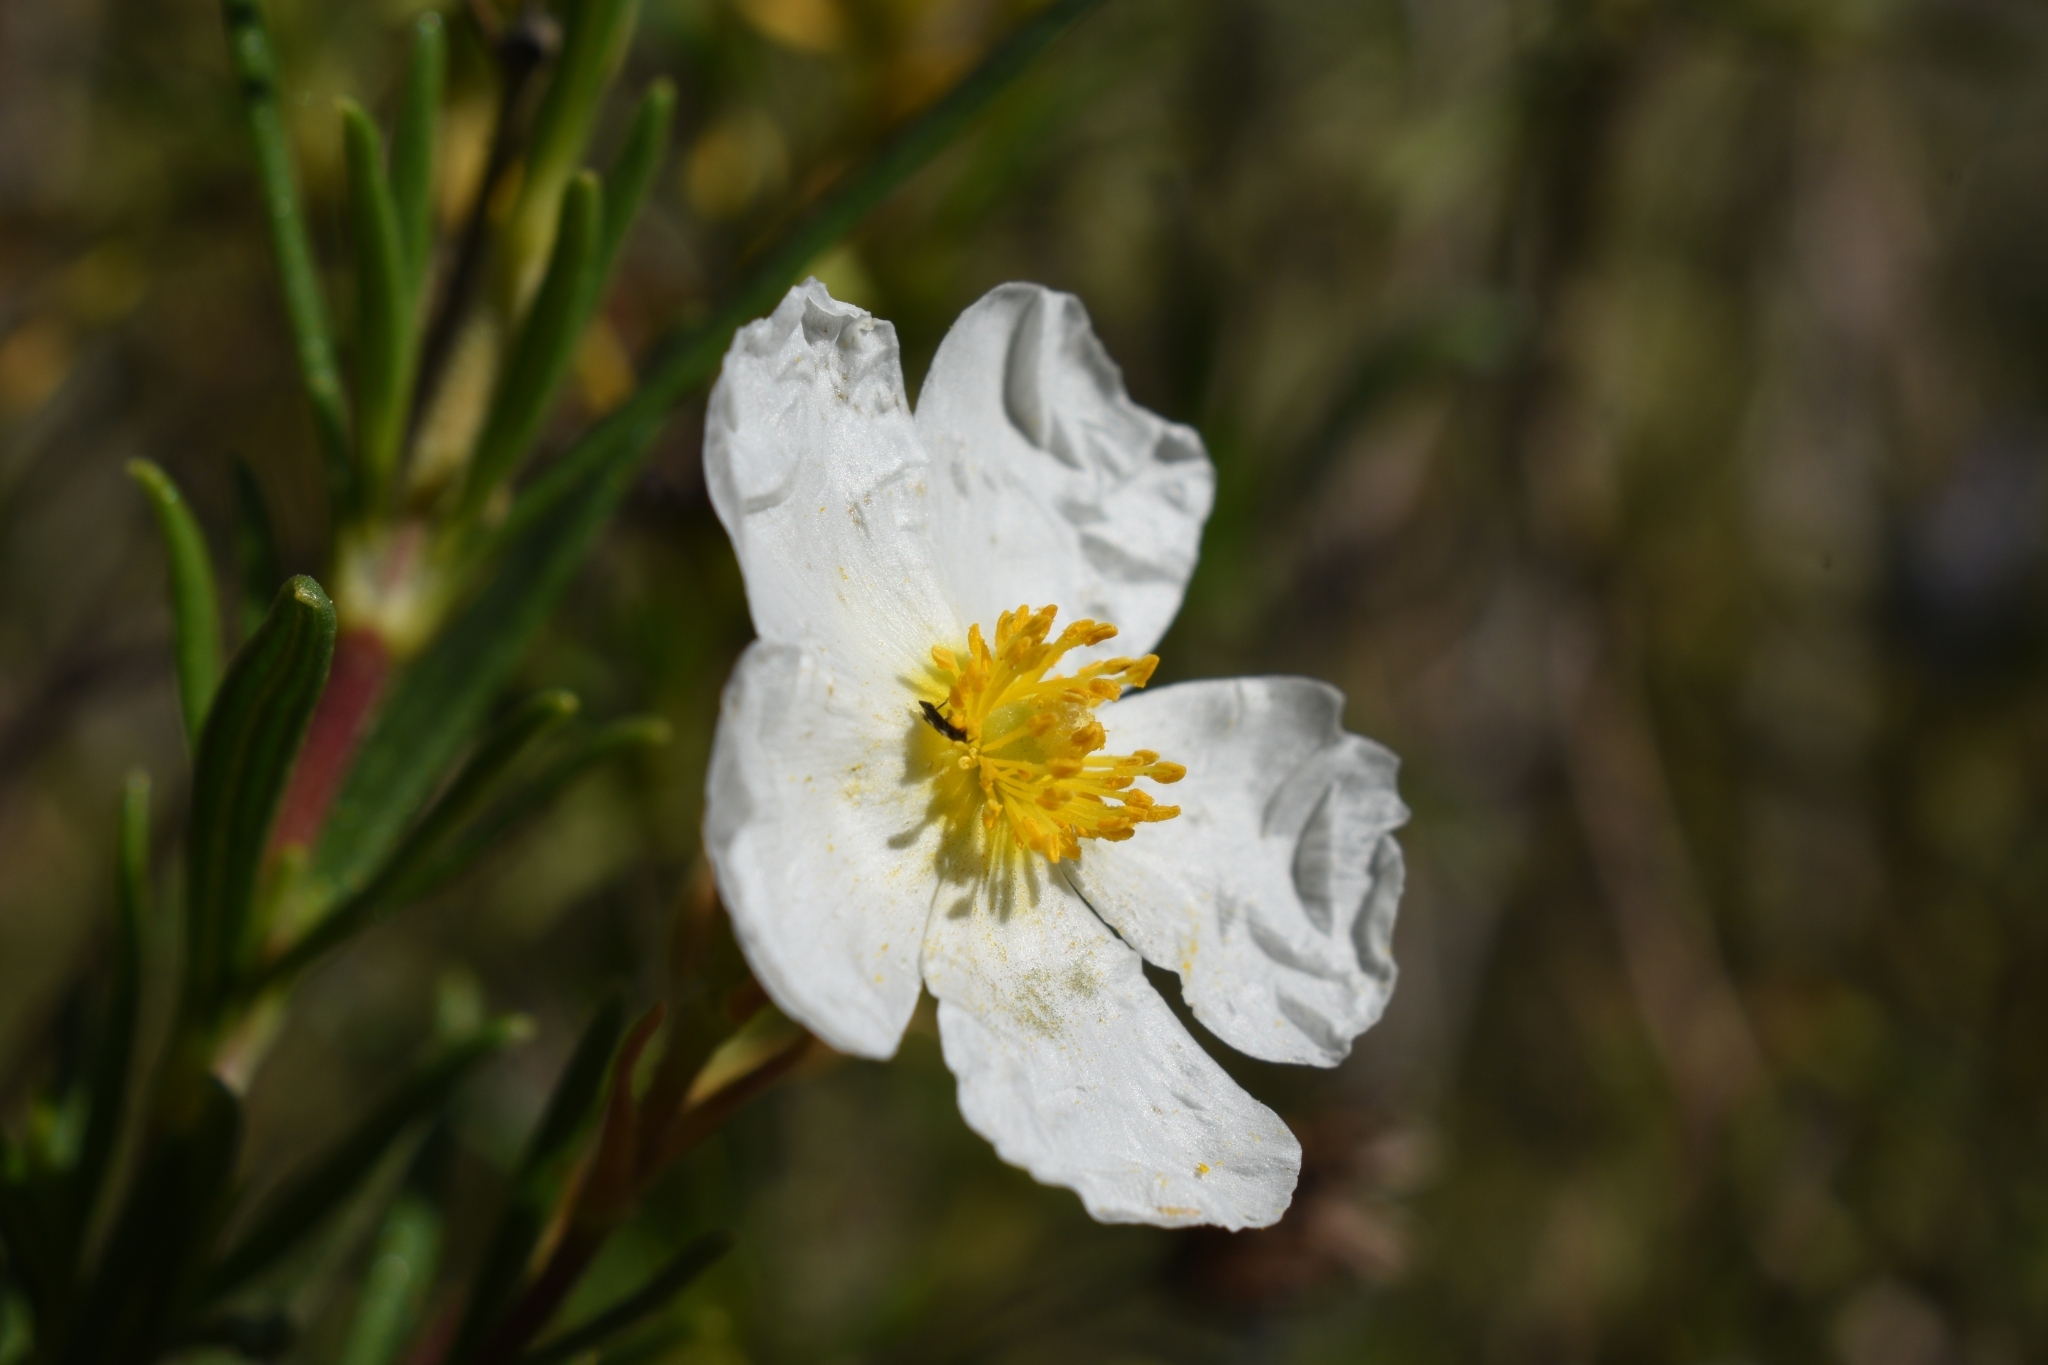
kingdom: Plantae
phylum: Tracheophyta
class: Magnoliopsida
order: Malvales
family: Cistaceae
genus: Cistus
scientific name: Cistus clusii
